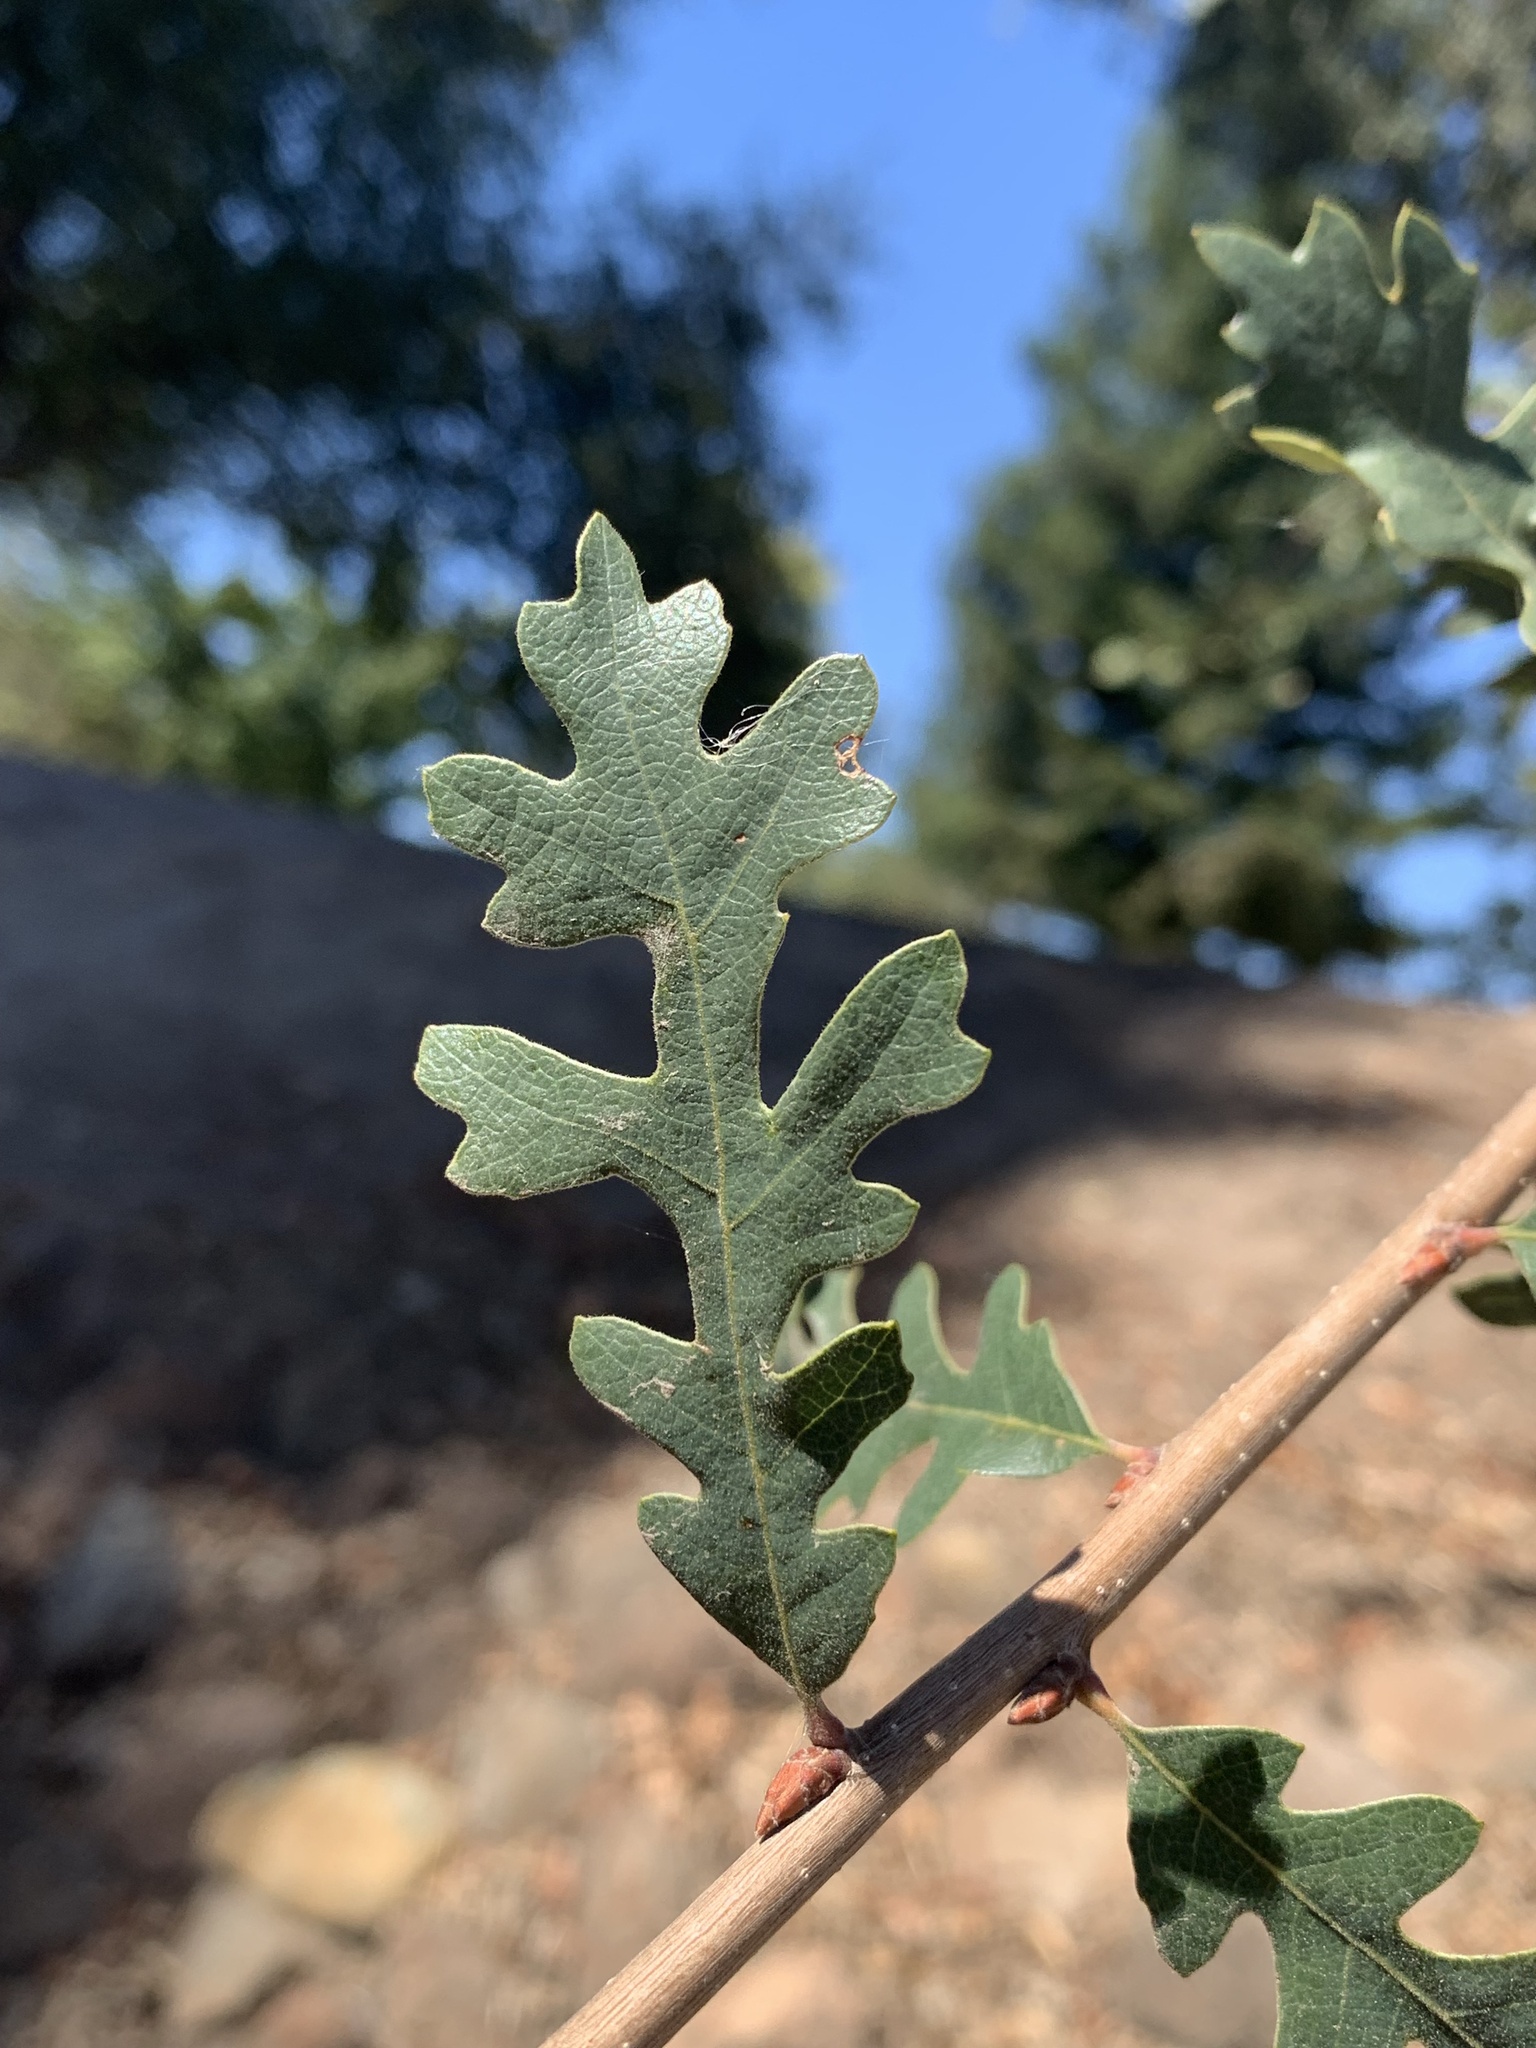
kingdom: Plantae
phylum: Tracheophyta
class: Magnoliopsida
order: Fagales
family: Fagaceae
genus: Quercus
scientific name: Quercus lobata
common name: Valley oak
